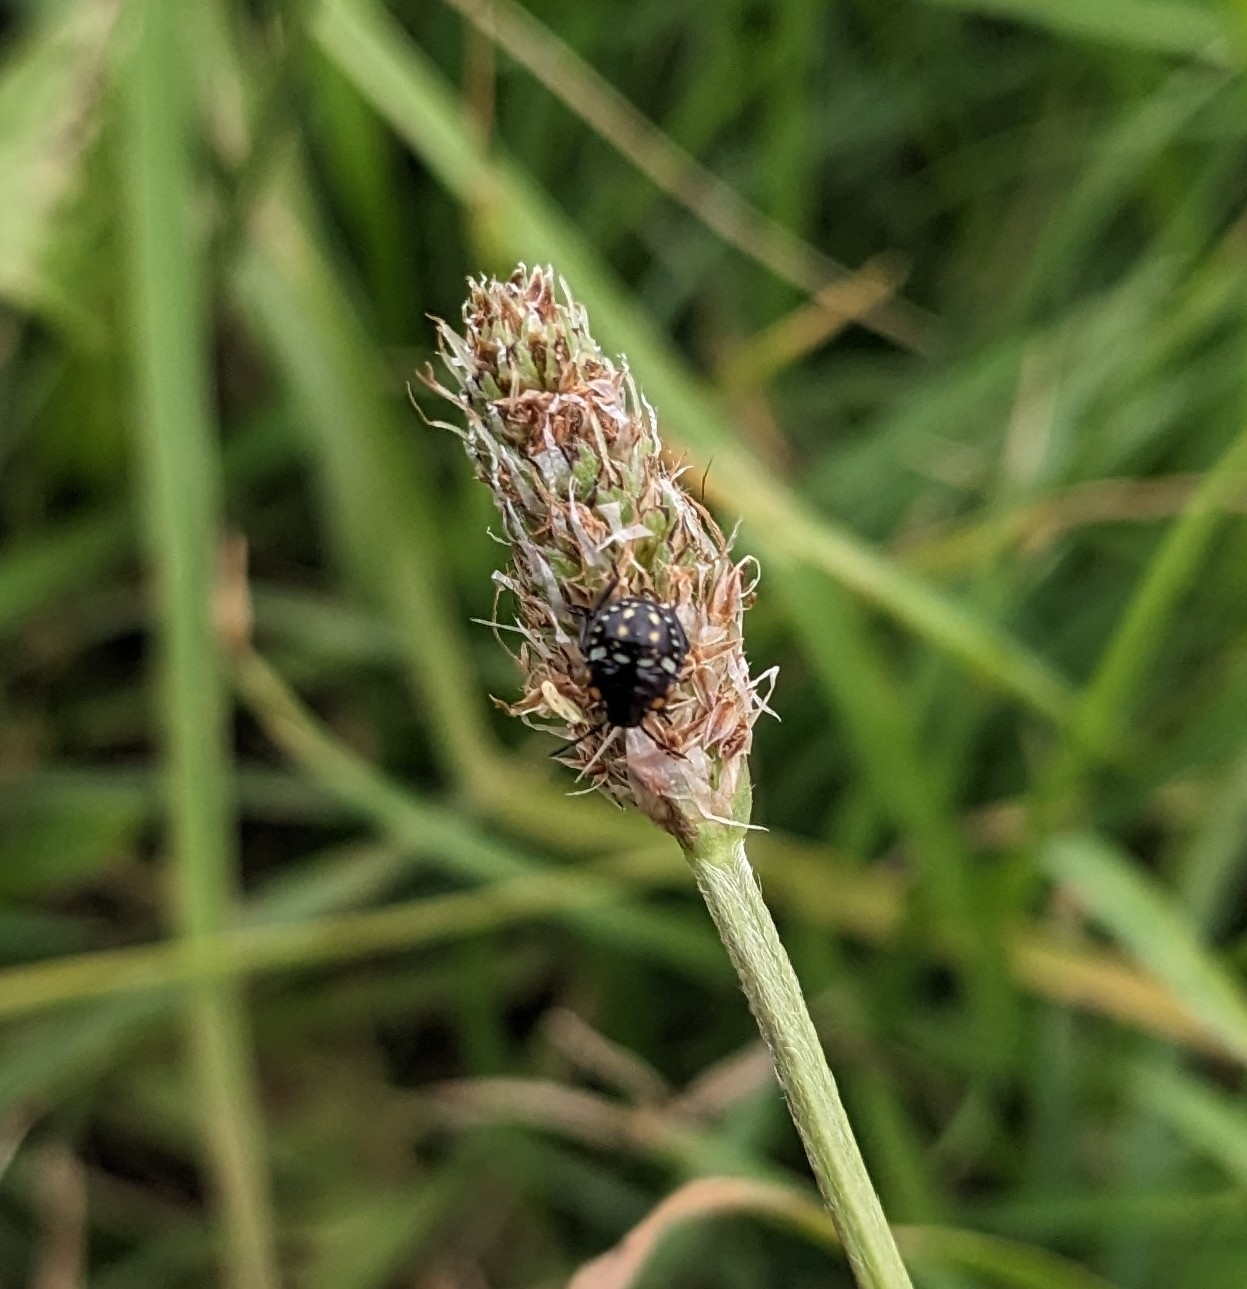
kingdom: Animalia
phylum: Arthropoda
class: Insecta
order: Hemiptera
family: Pentatomidae
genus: Nezara
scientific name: Nezara viridula
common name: Southern green stink bug
